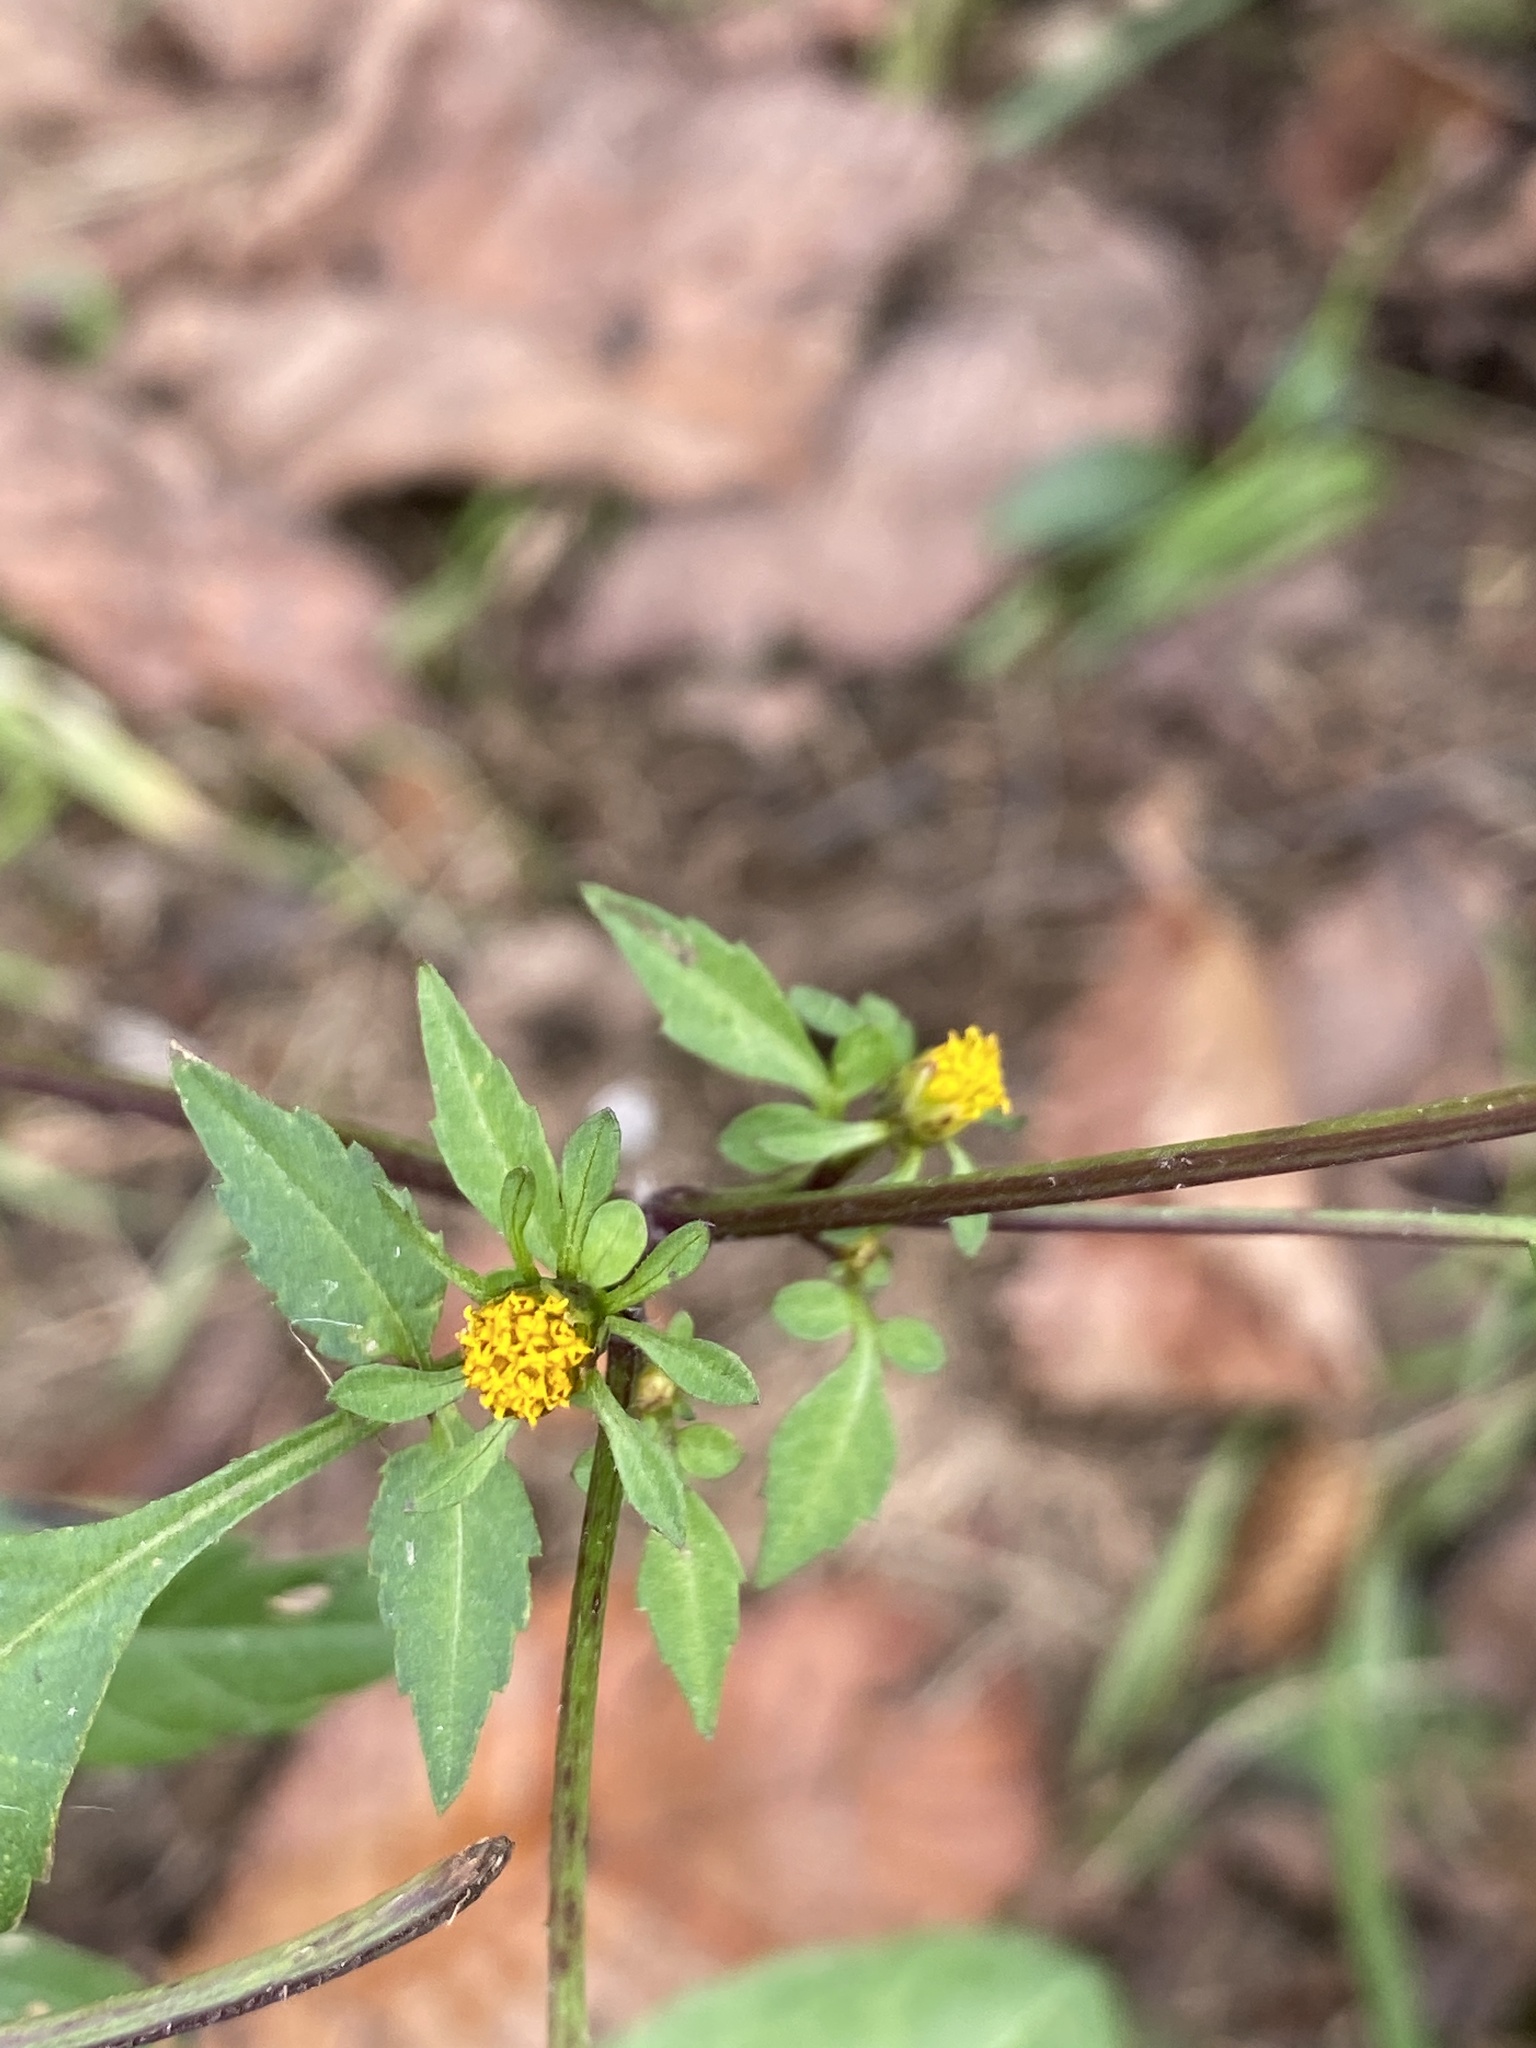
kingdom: Plantae
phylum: Tracheophyta
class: Magnoliopsida
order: Asterales
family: Asteraceae
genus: Bidens
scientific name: Bidens frondosa
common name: Beggarticks
